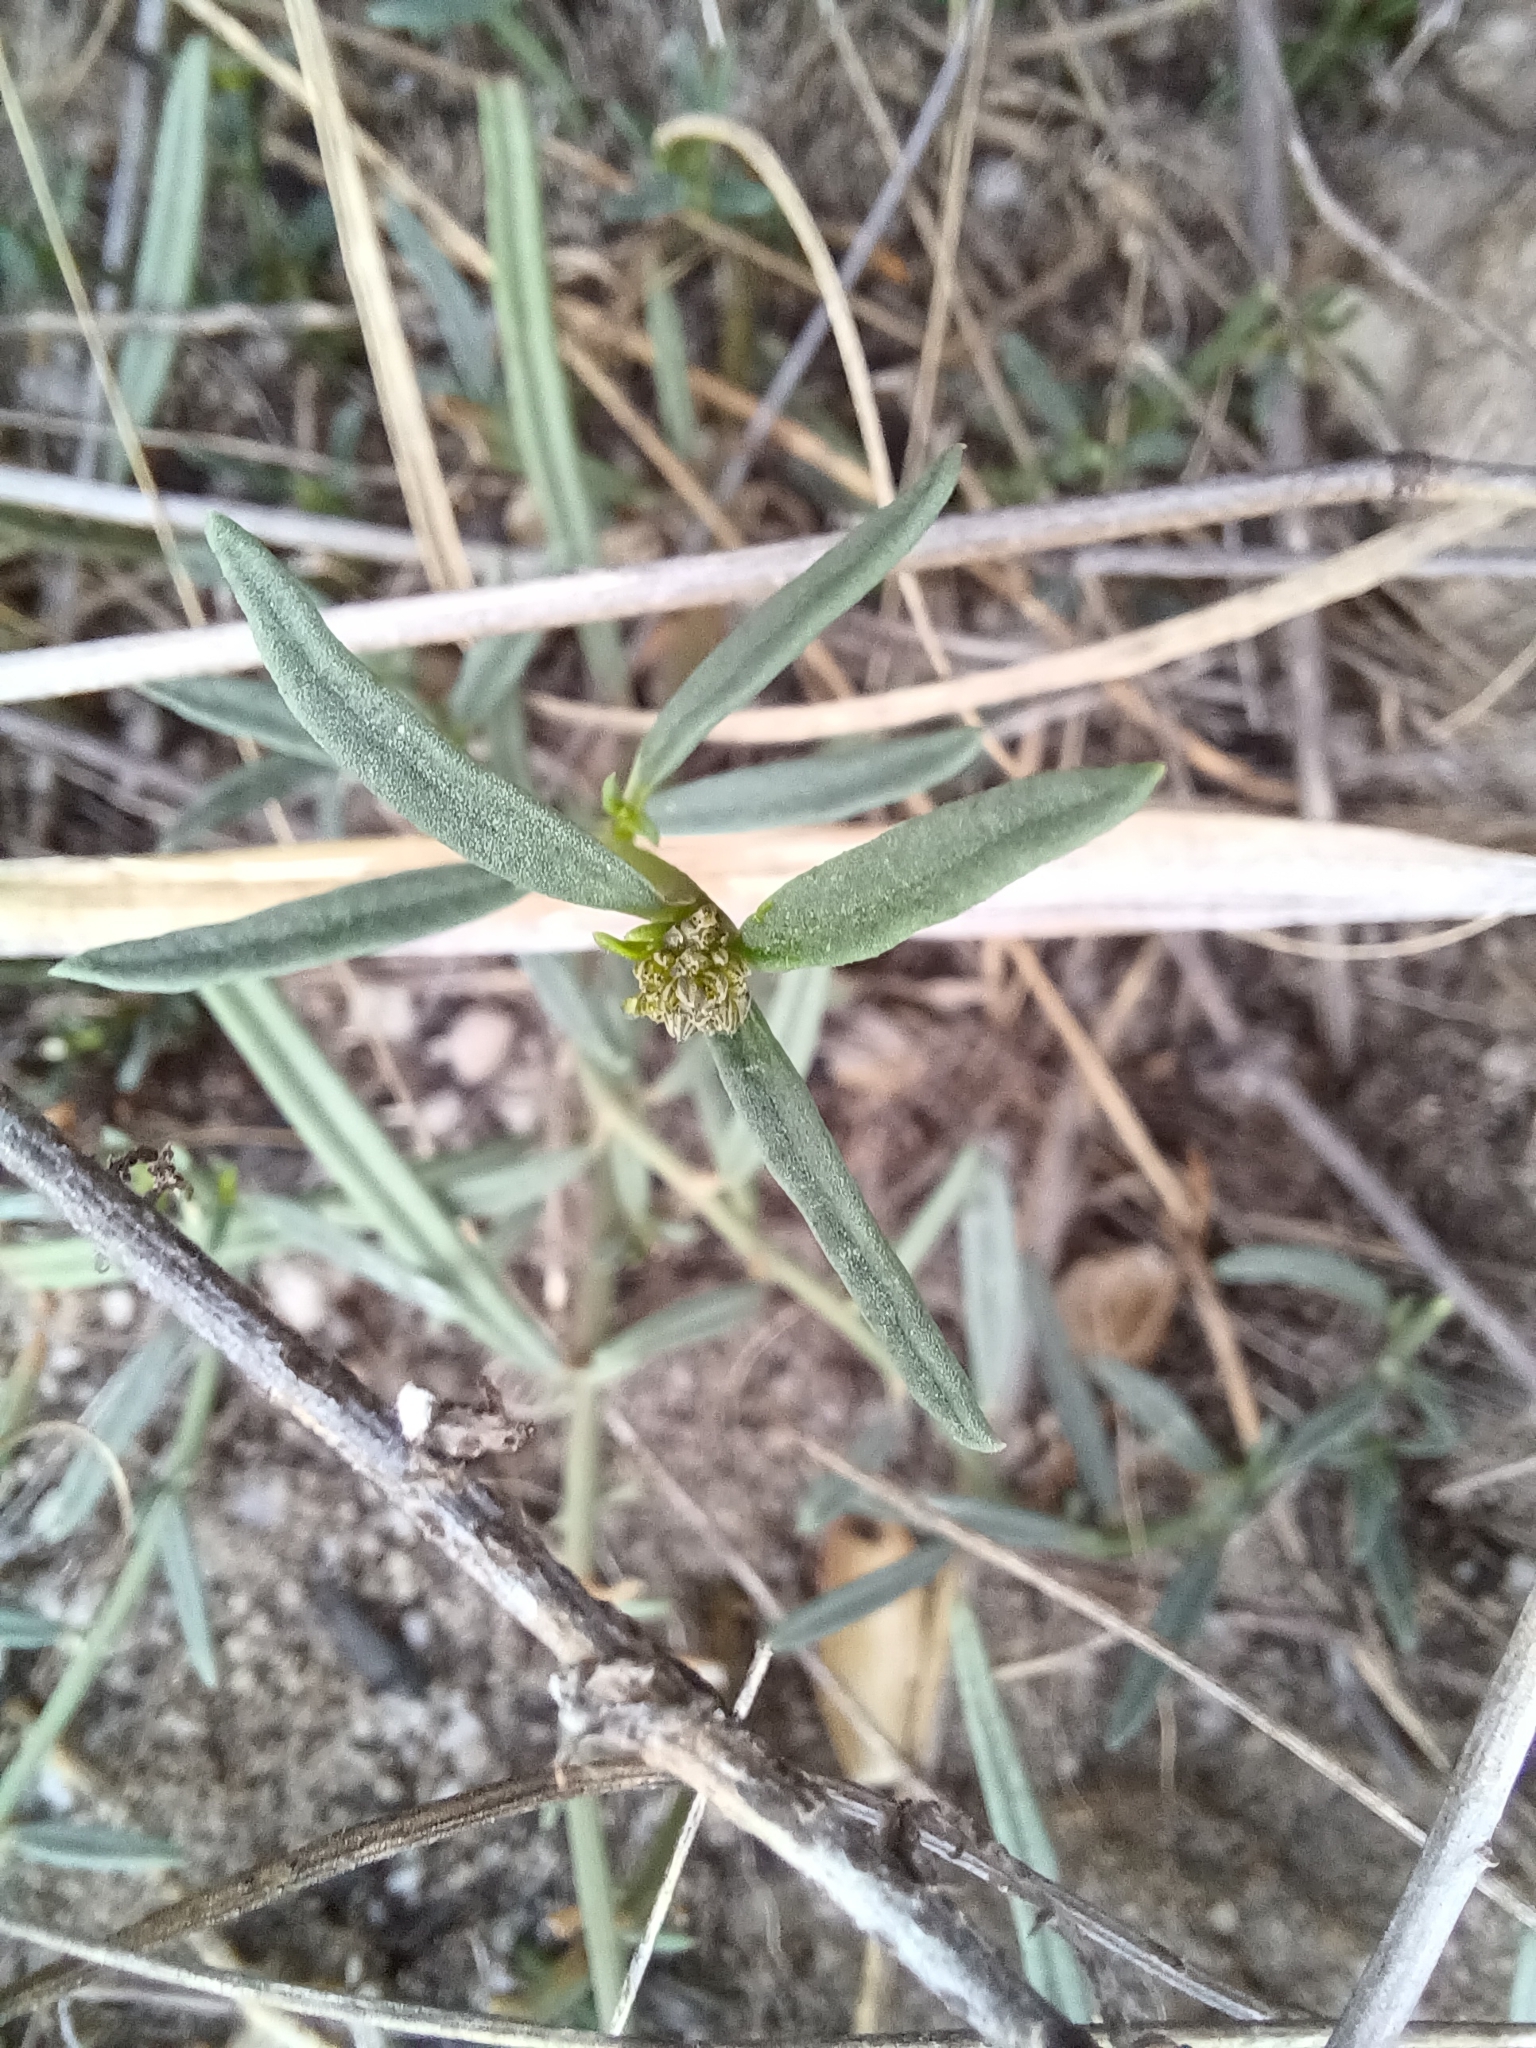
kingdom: Plantae
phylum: Tracheophyta
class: Magnoliopsida
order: Caryophyllales
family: Limeaceae
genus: Limeum
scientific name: Limeum africanum
